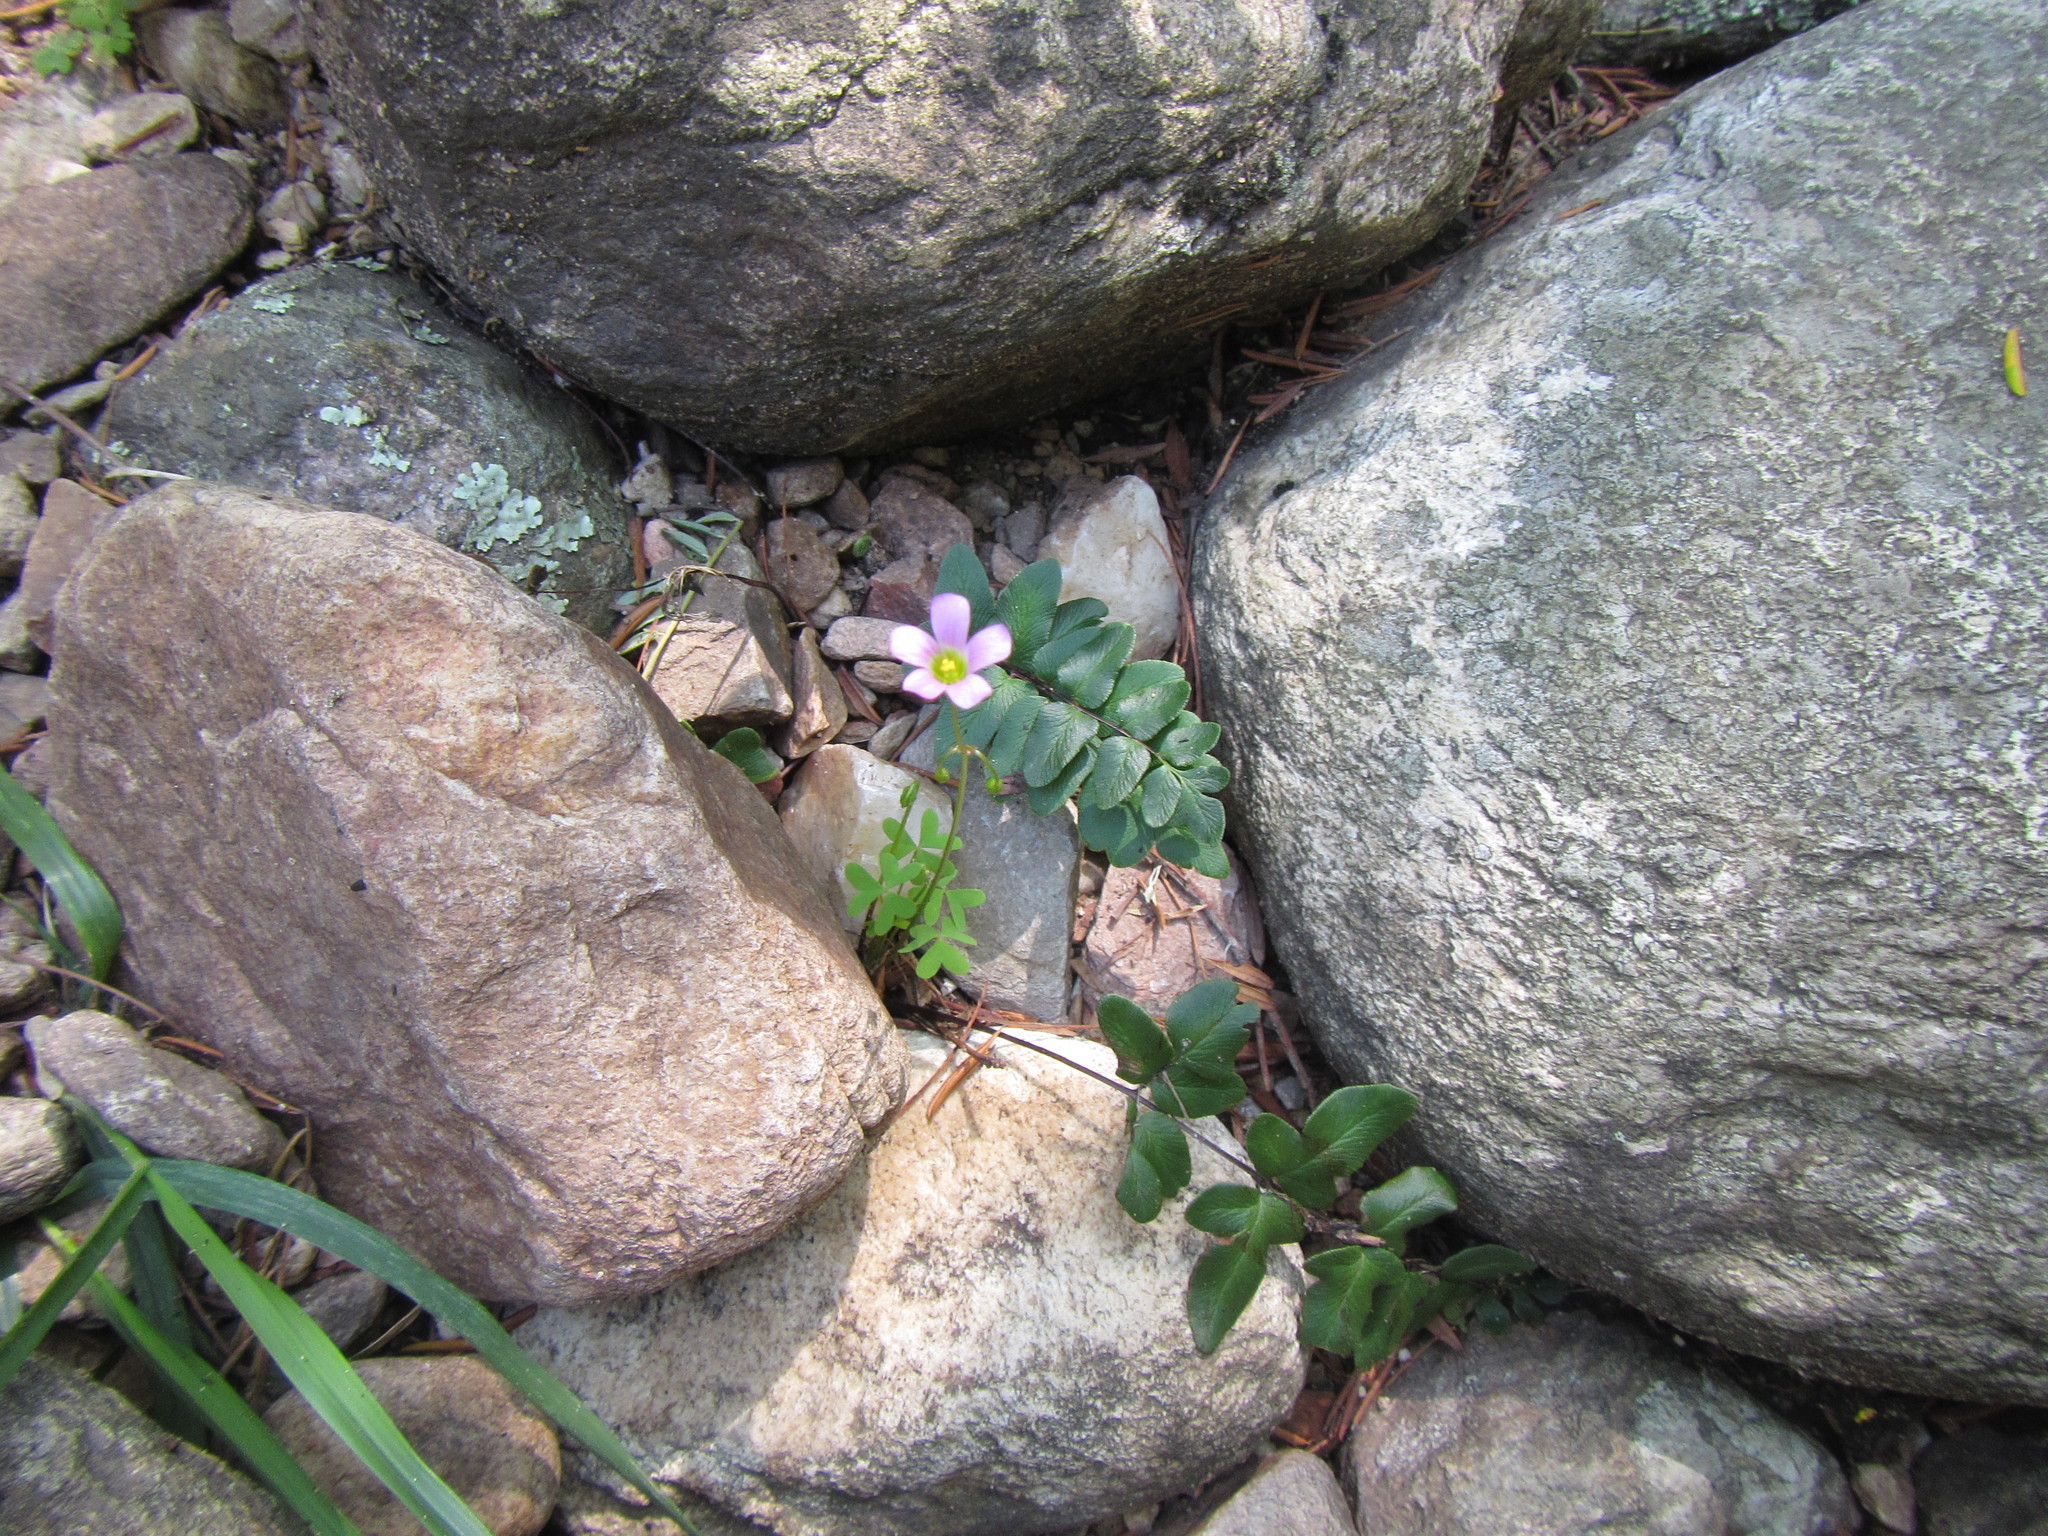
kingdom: Plantae
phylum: Tracheophyta
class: Magnoliopsida
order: Oxalidales
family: Oxalidaceae
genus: Oxalis
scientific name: Oxalis stellata
